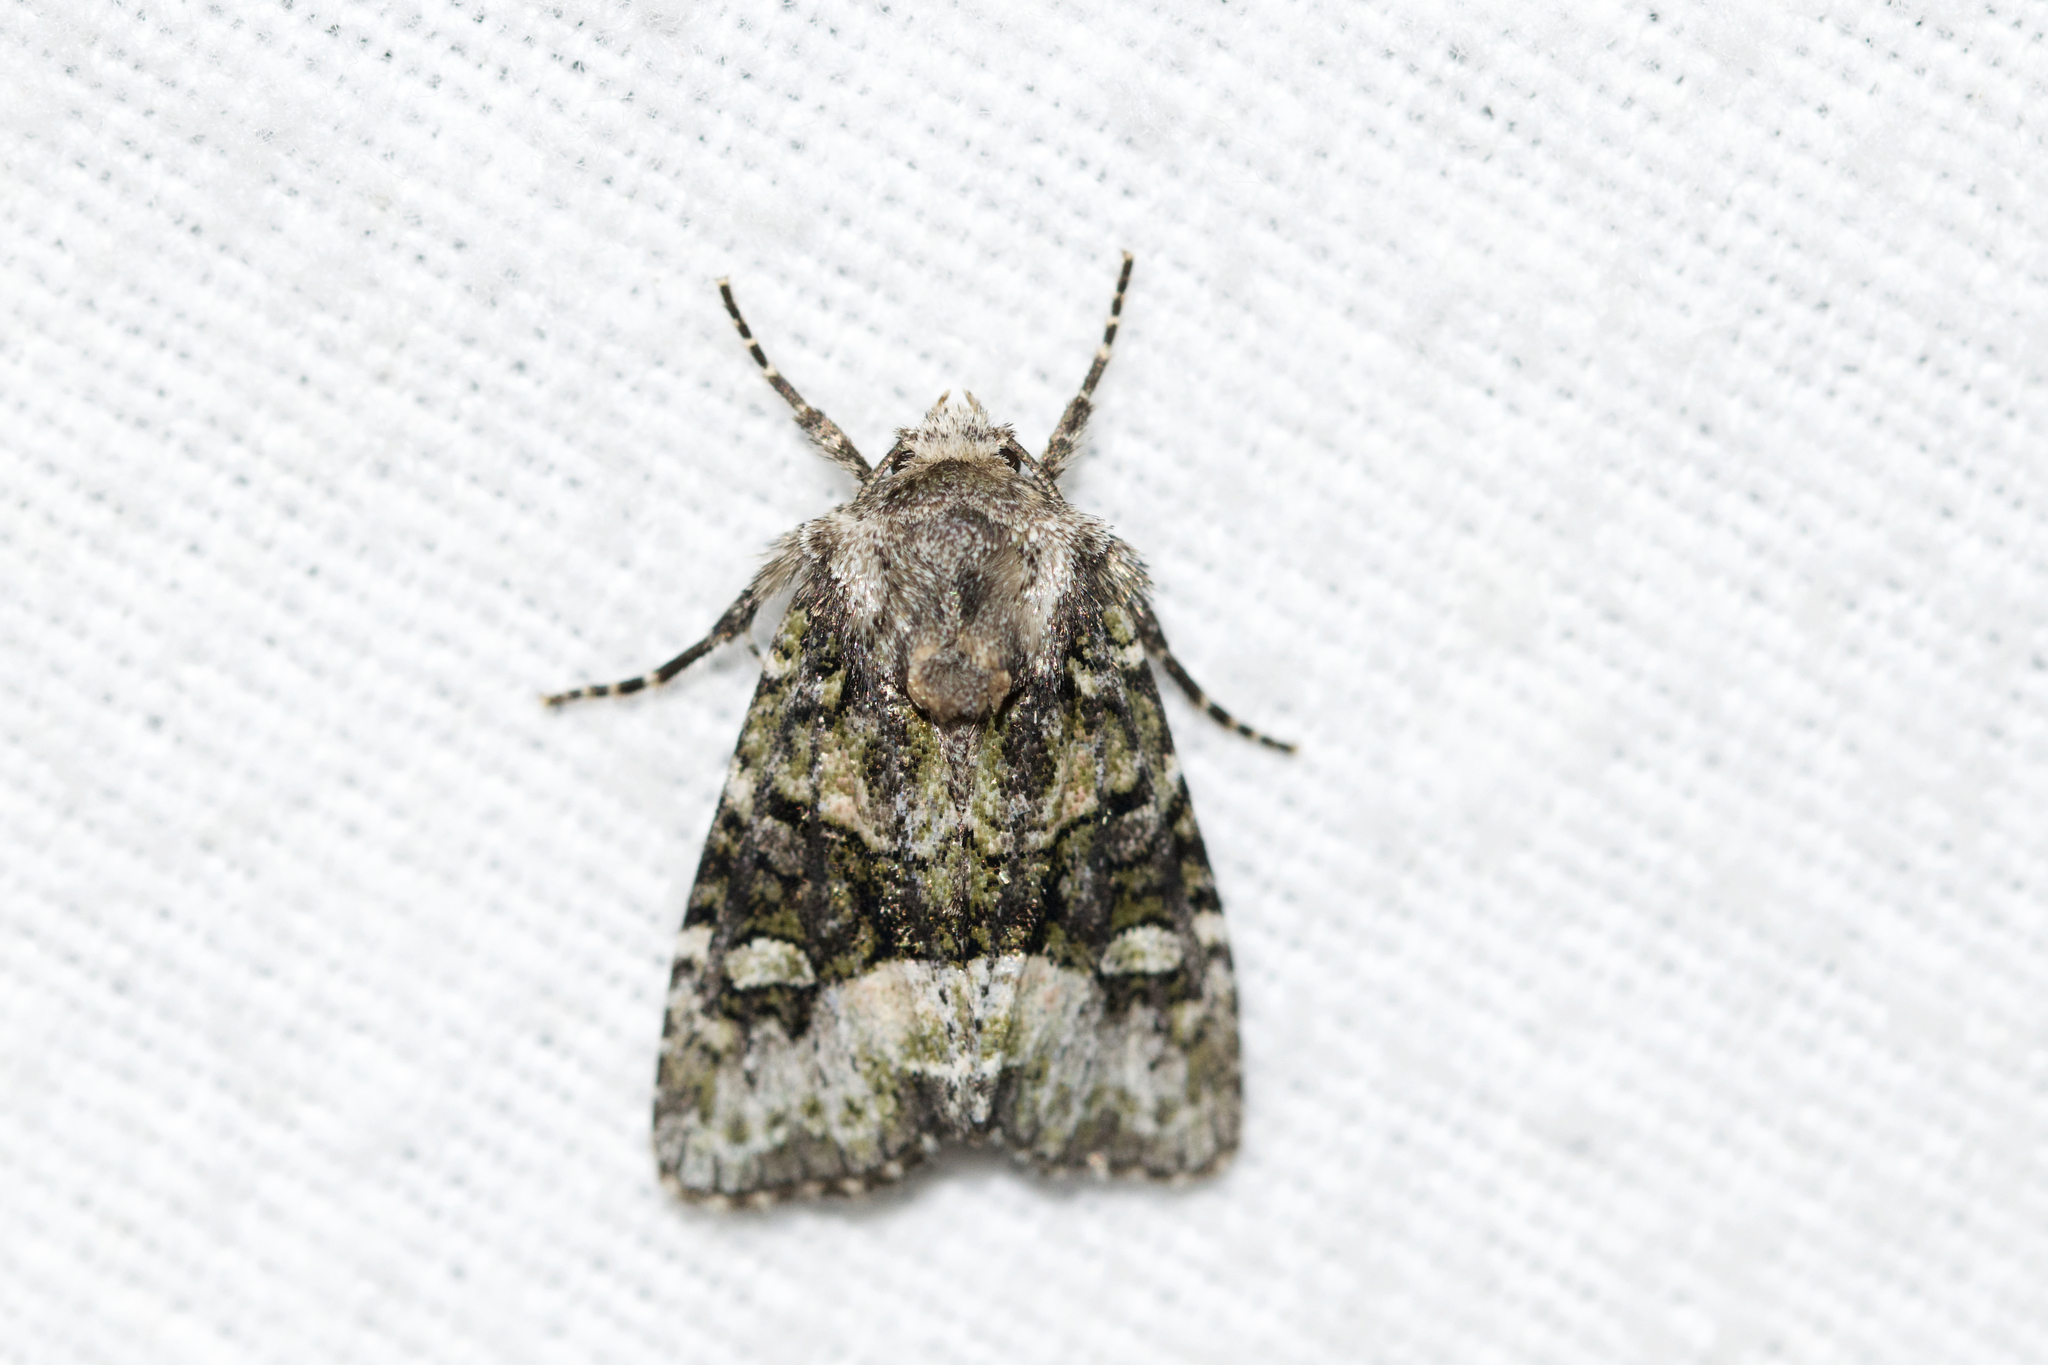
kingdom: Animalia
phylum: Arthropoda
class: Insecta
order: Lepidoptera
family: Noctuidae
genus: Lacinipolia
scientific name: Lacinipolia olivacea
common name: Olive arches moth
